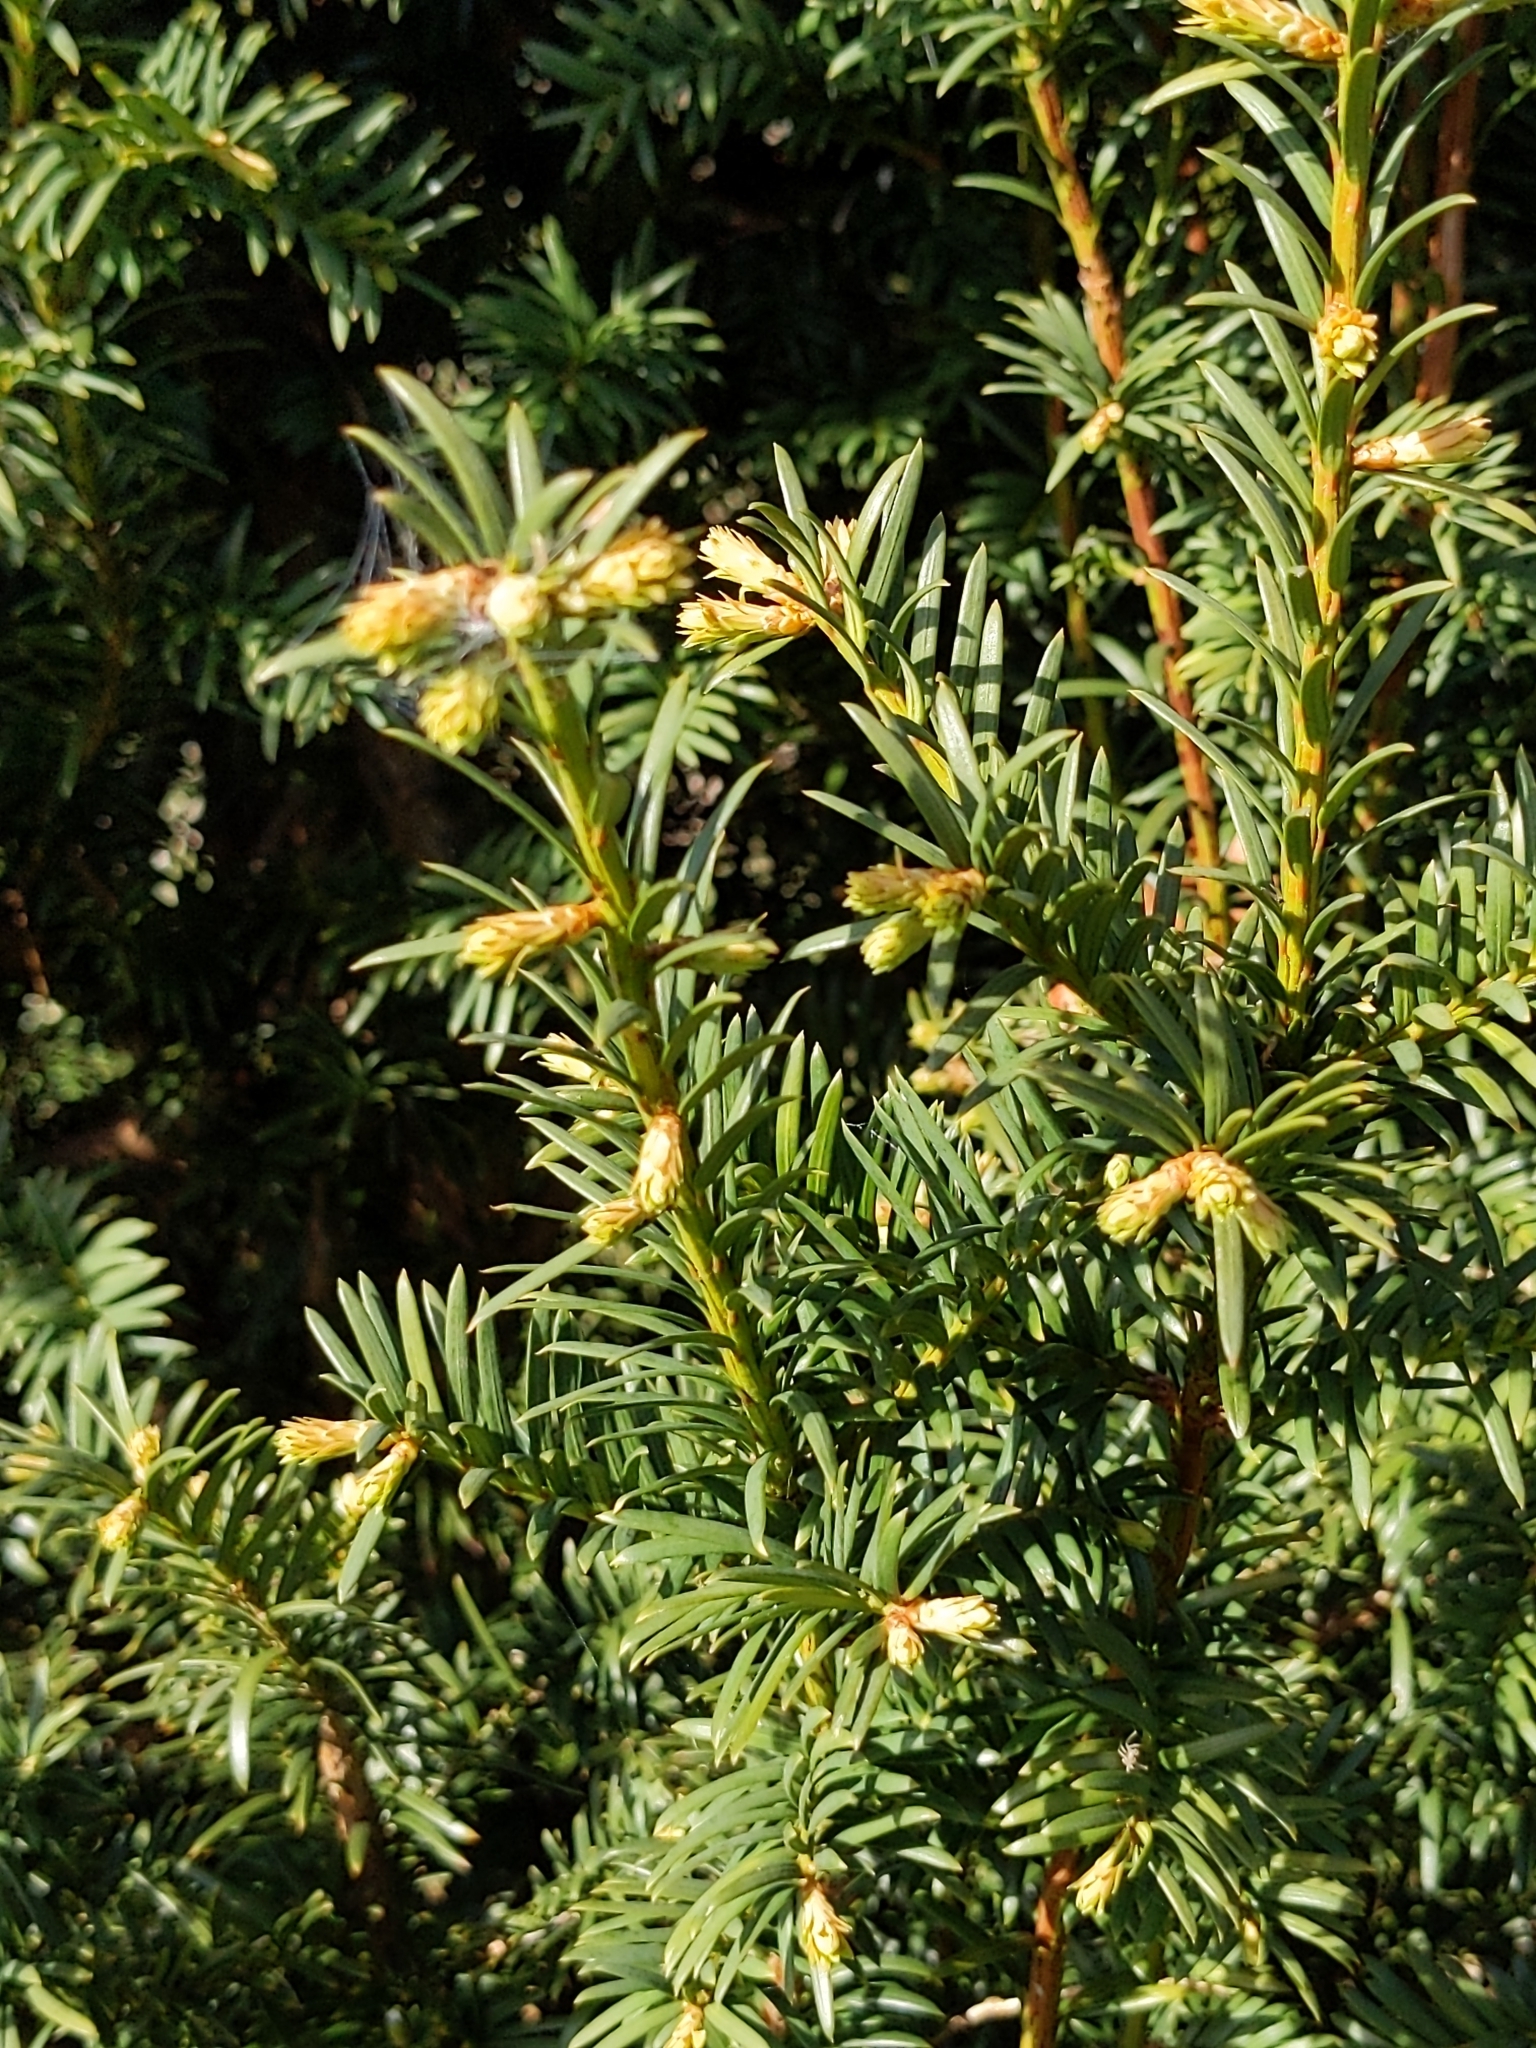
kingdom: Plantae
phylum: Tracheophyta
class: Pinopsida
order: Pinales
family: Taxaceae
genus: Taxus
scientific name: Taxus baccata
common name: Yew
